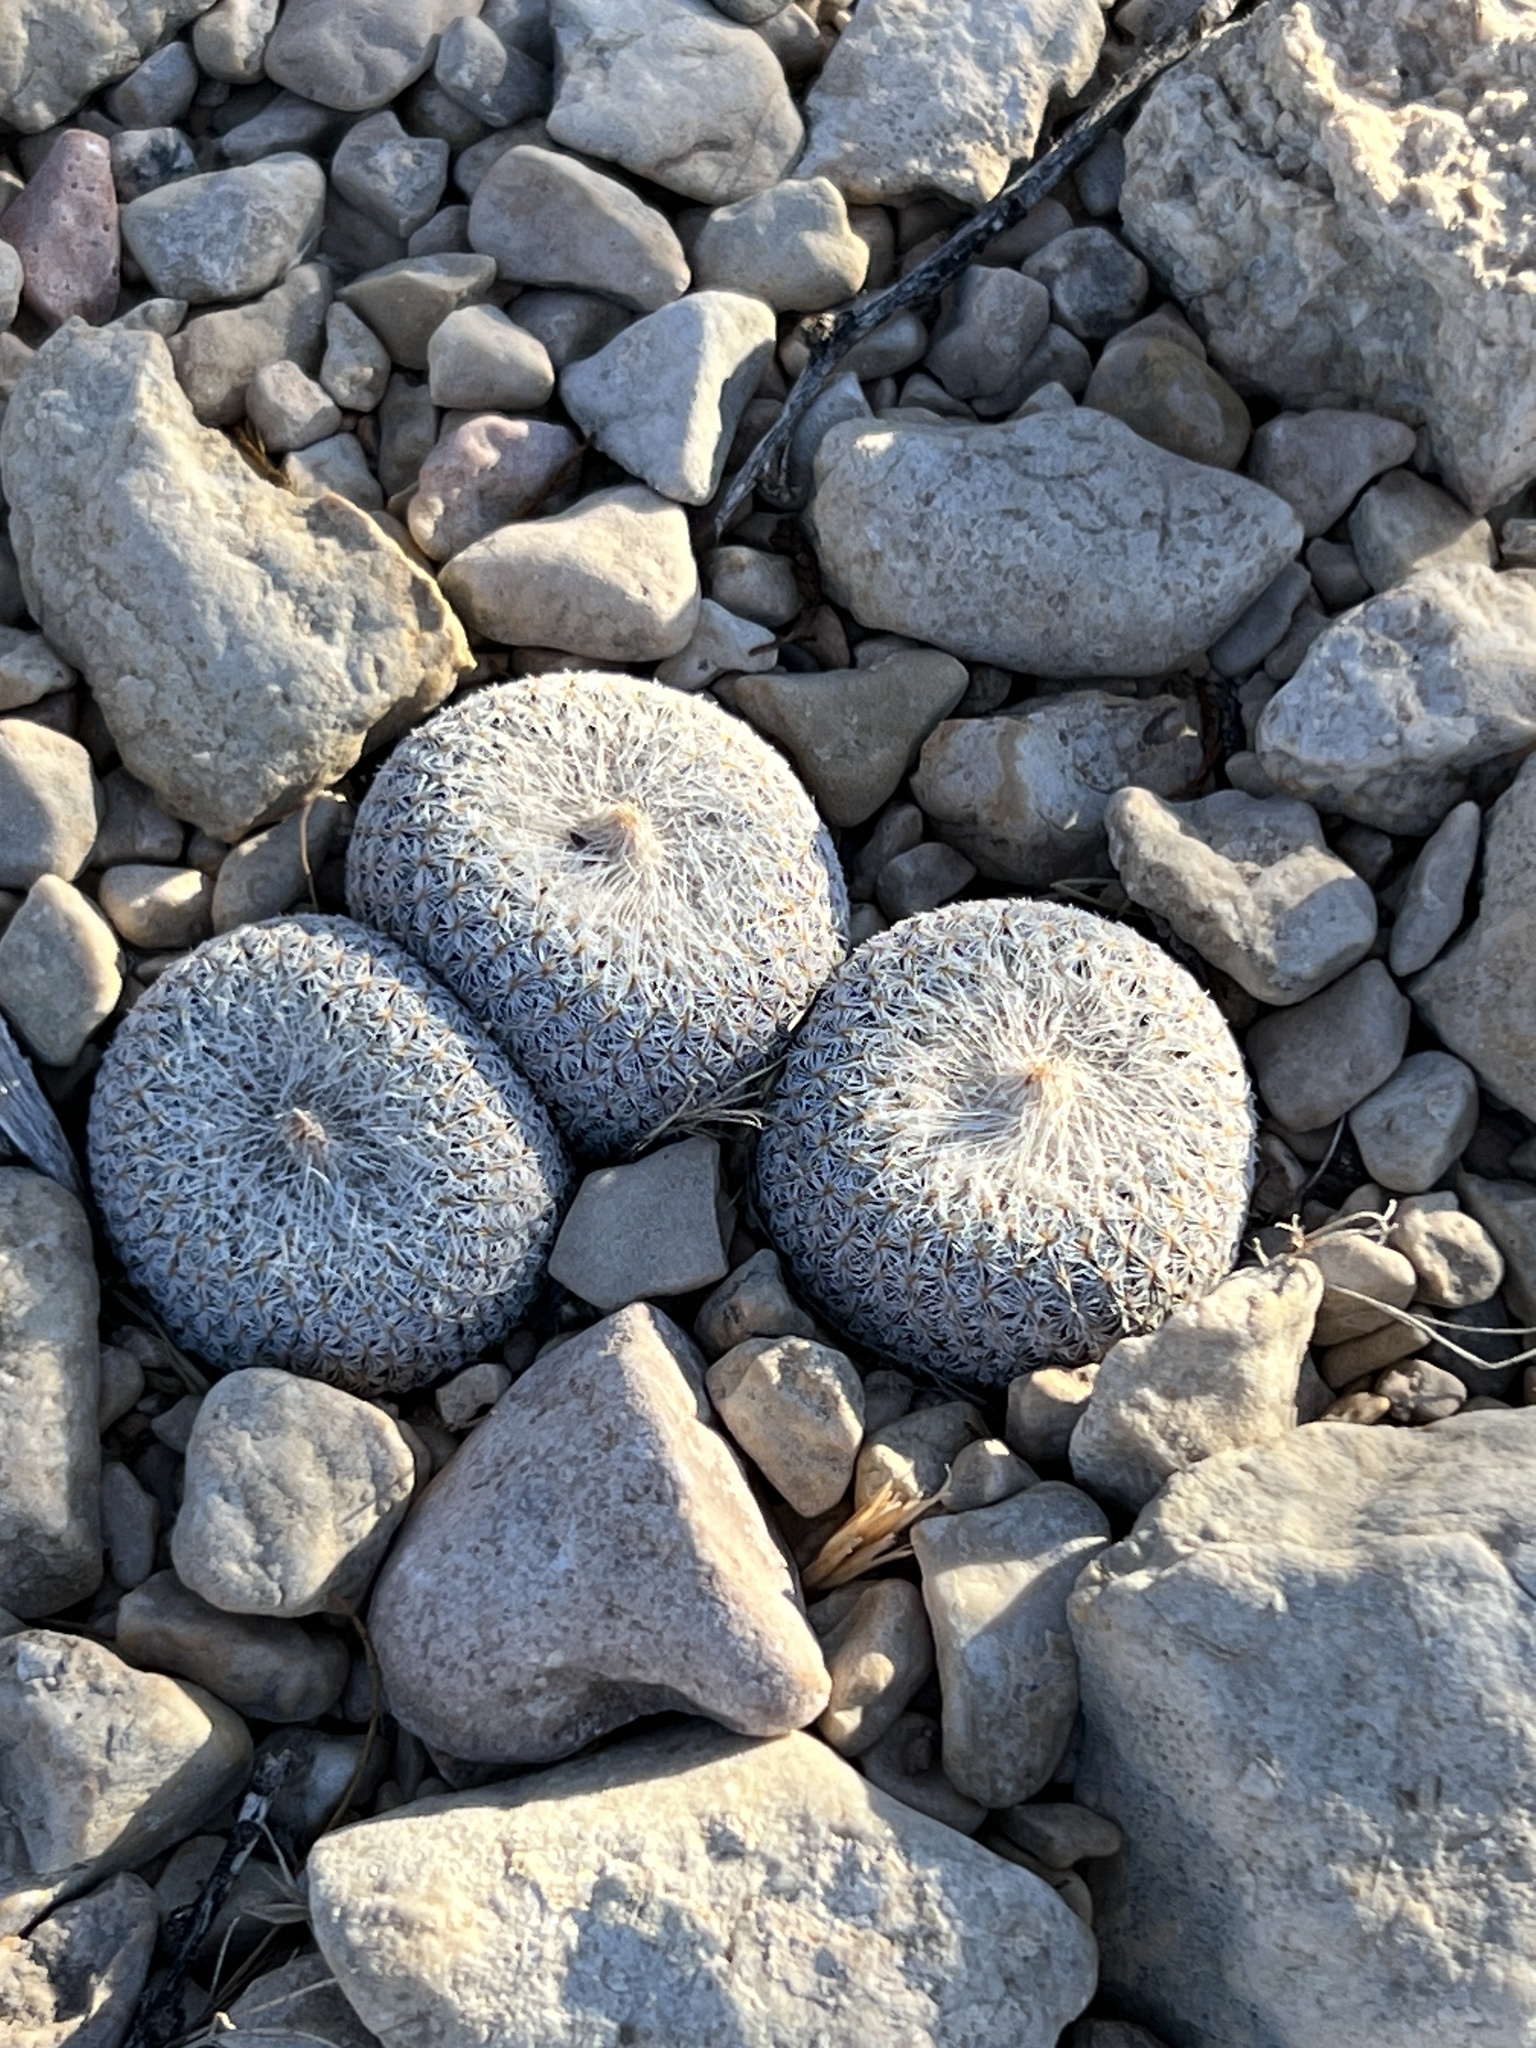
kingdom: Plantae
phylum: Tracheophyta
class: Magnoliopsida
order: Caryophyllales
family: Cactaceae
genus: Epithelantha
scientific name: Epithelantha micromeris
